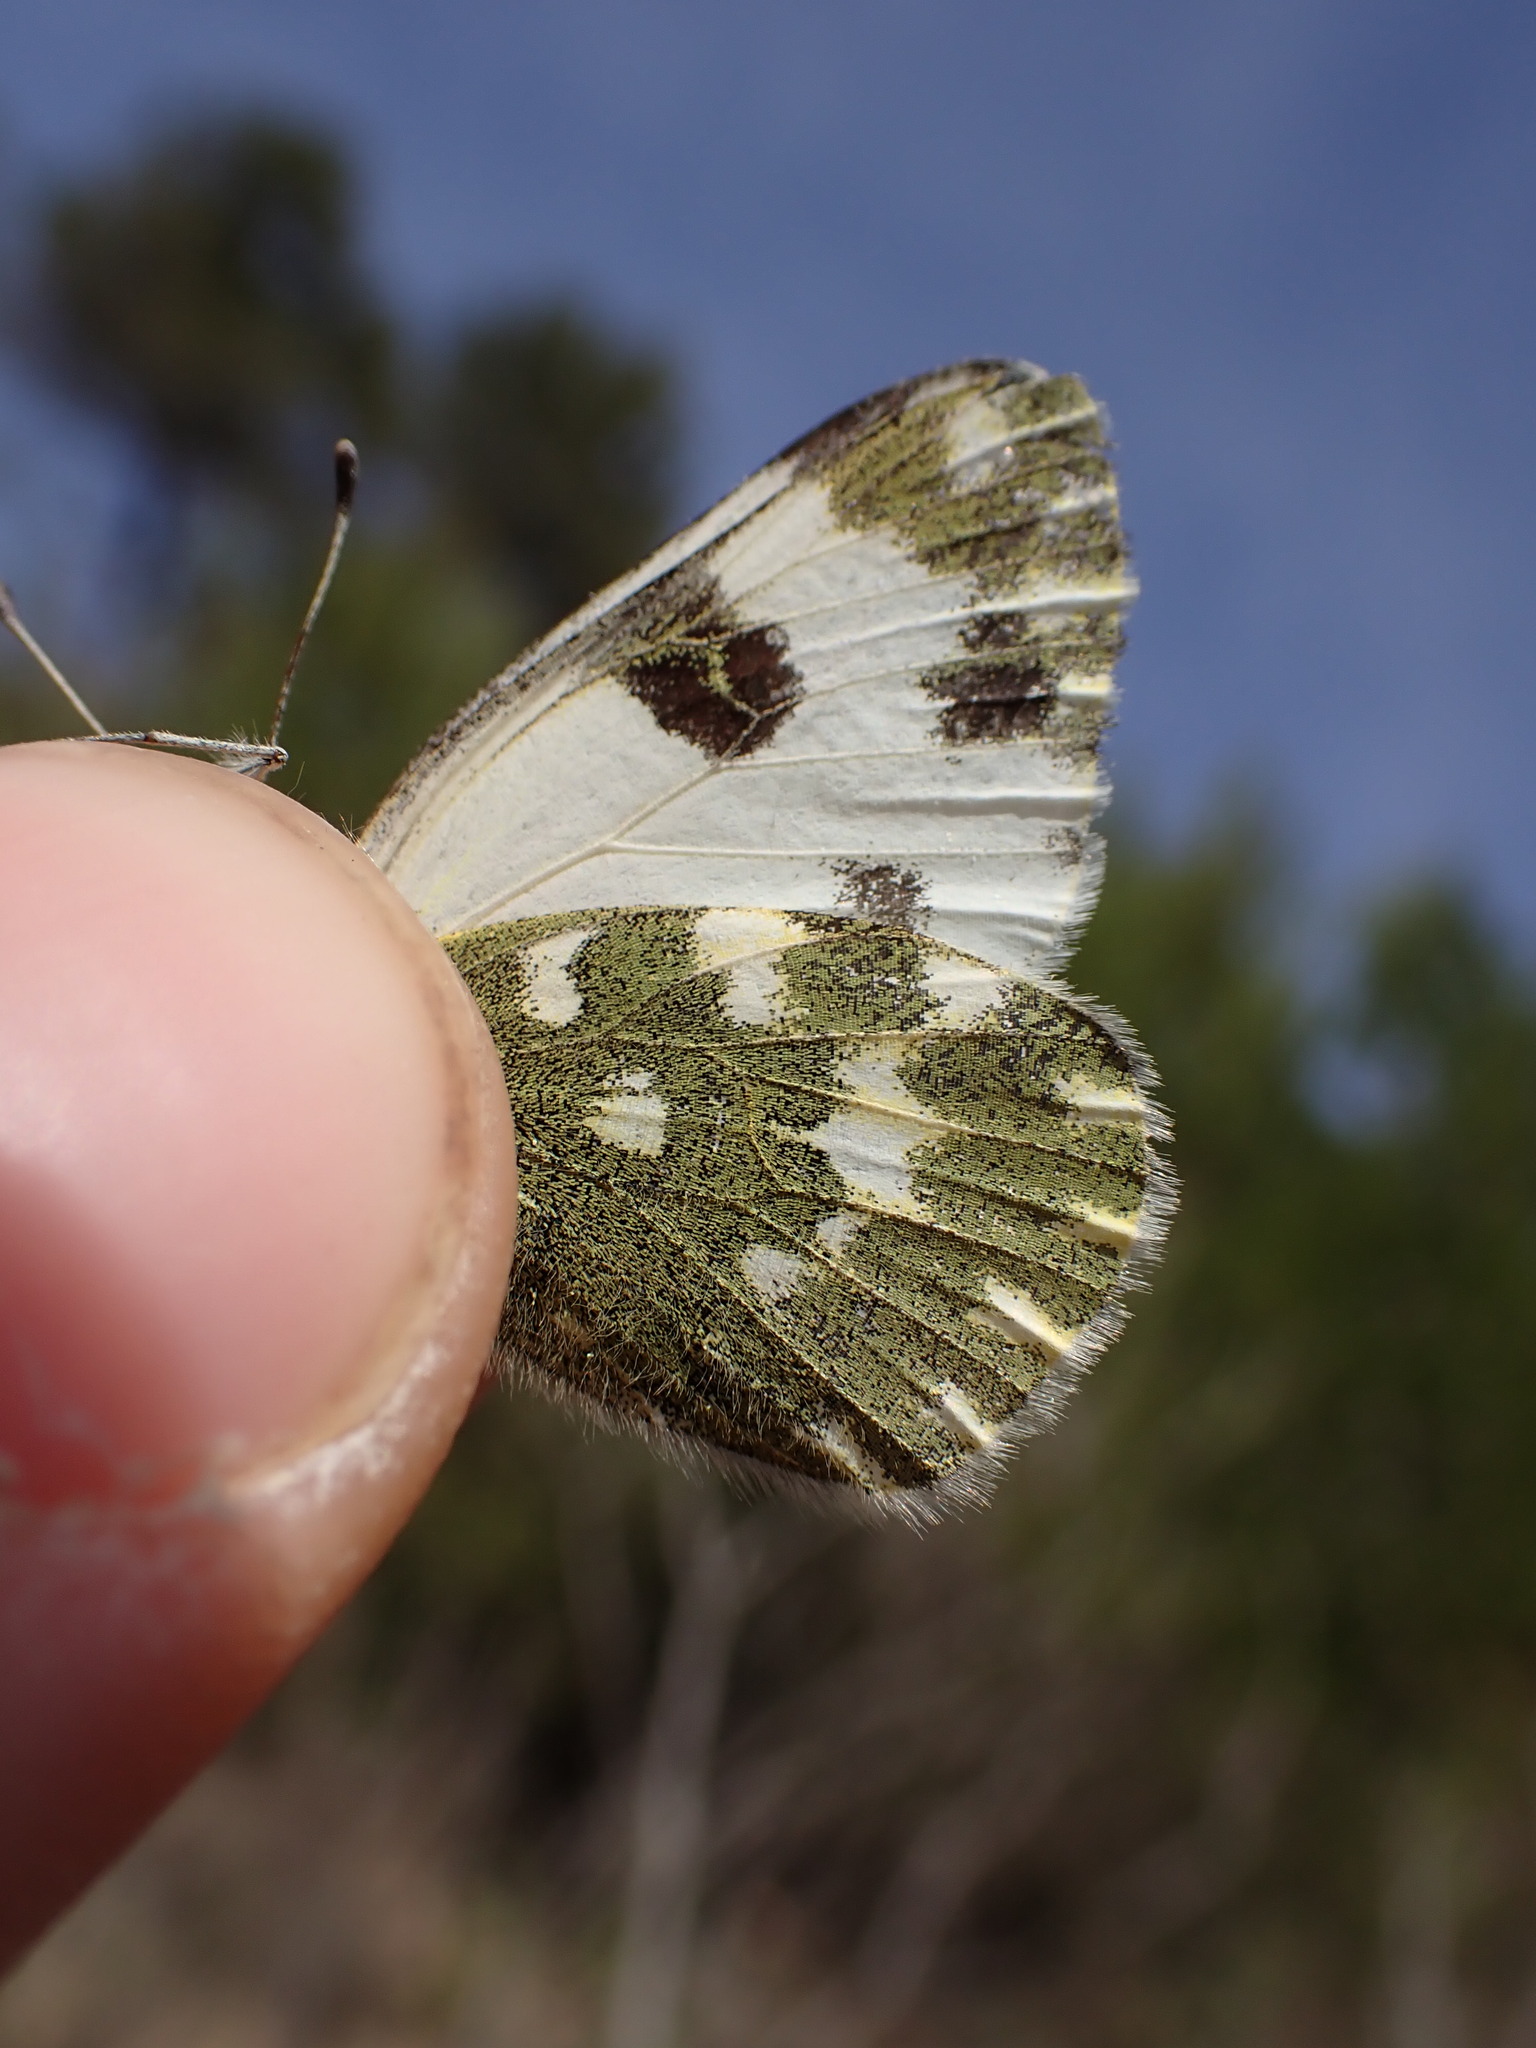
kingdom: Animalia
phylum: Arthropoda
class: Insecta
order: Lepidoptera
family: Pieridae
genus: Pontia
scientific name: Pontia daplidice
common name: Bath white
